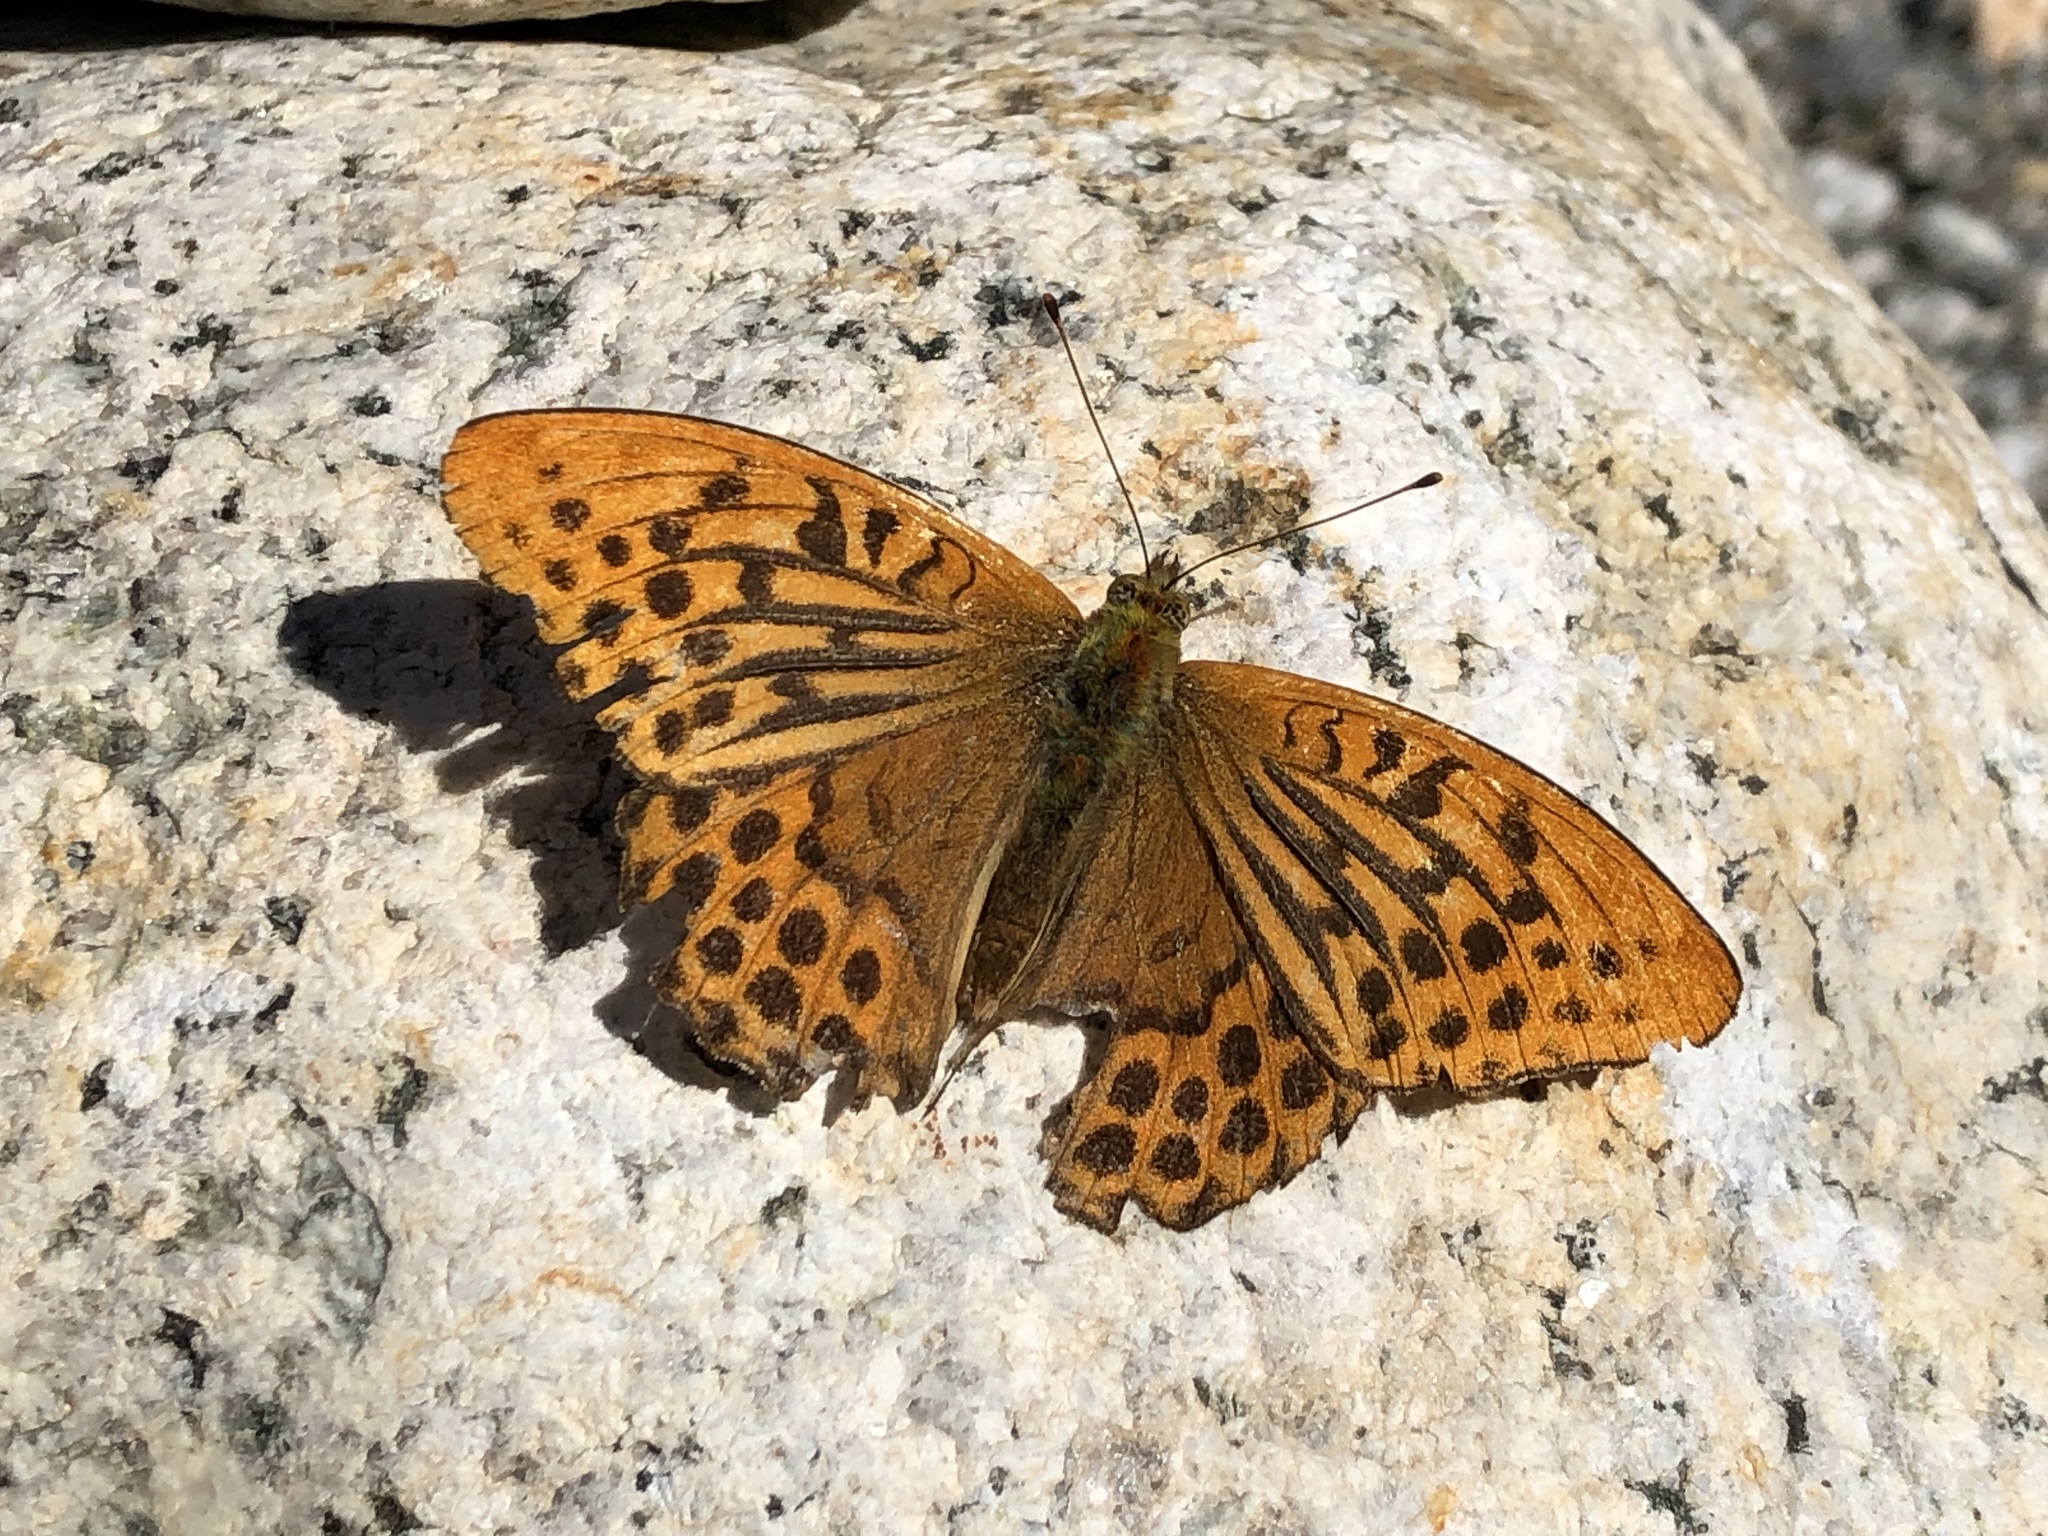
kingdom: Animalia
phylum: Arthropoda
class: Insecta
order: Lepidoptera
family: Nymphalidae
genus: Argynnis
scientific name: Argynnis paphia
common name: Silver-washed fritillary
